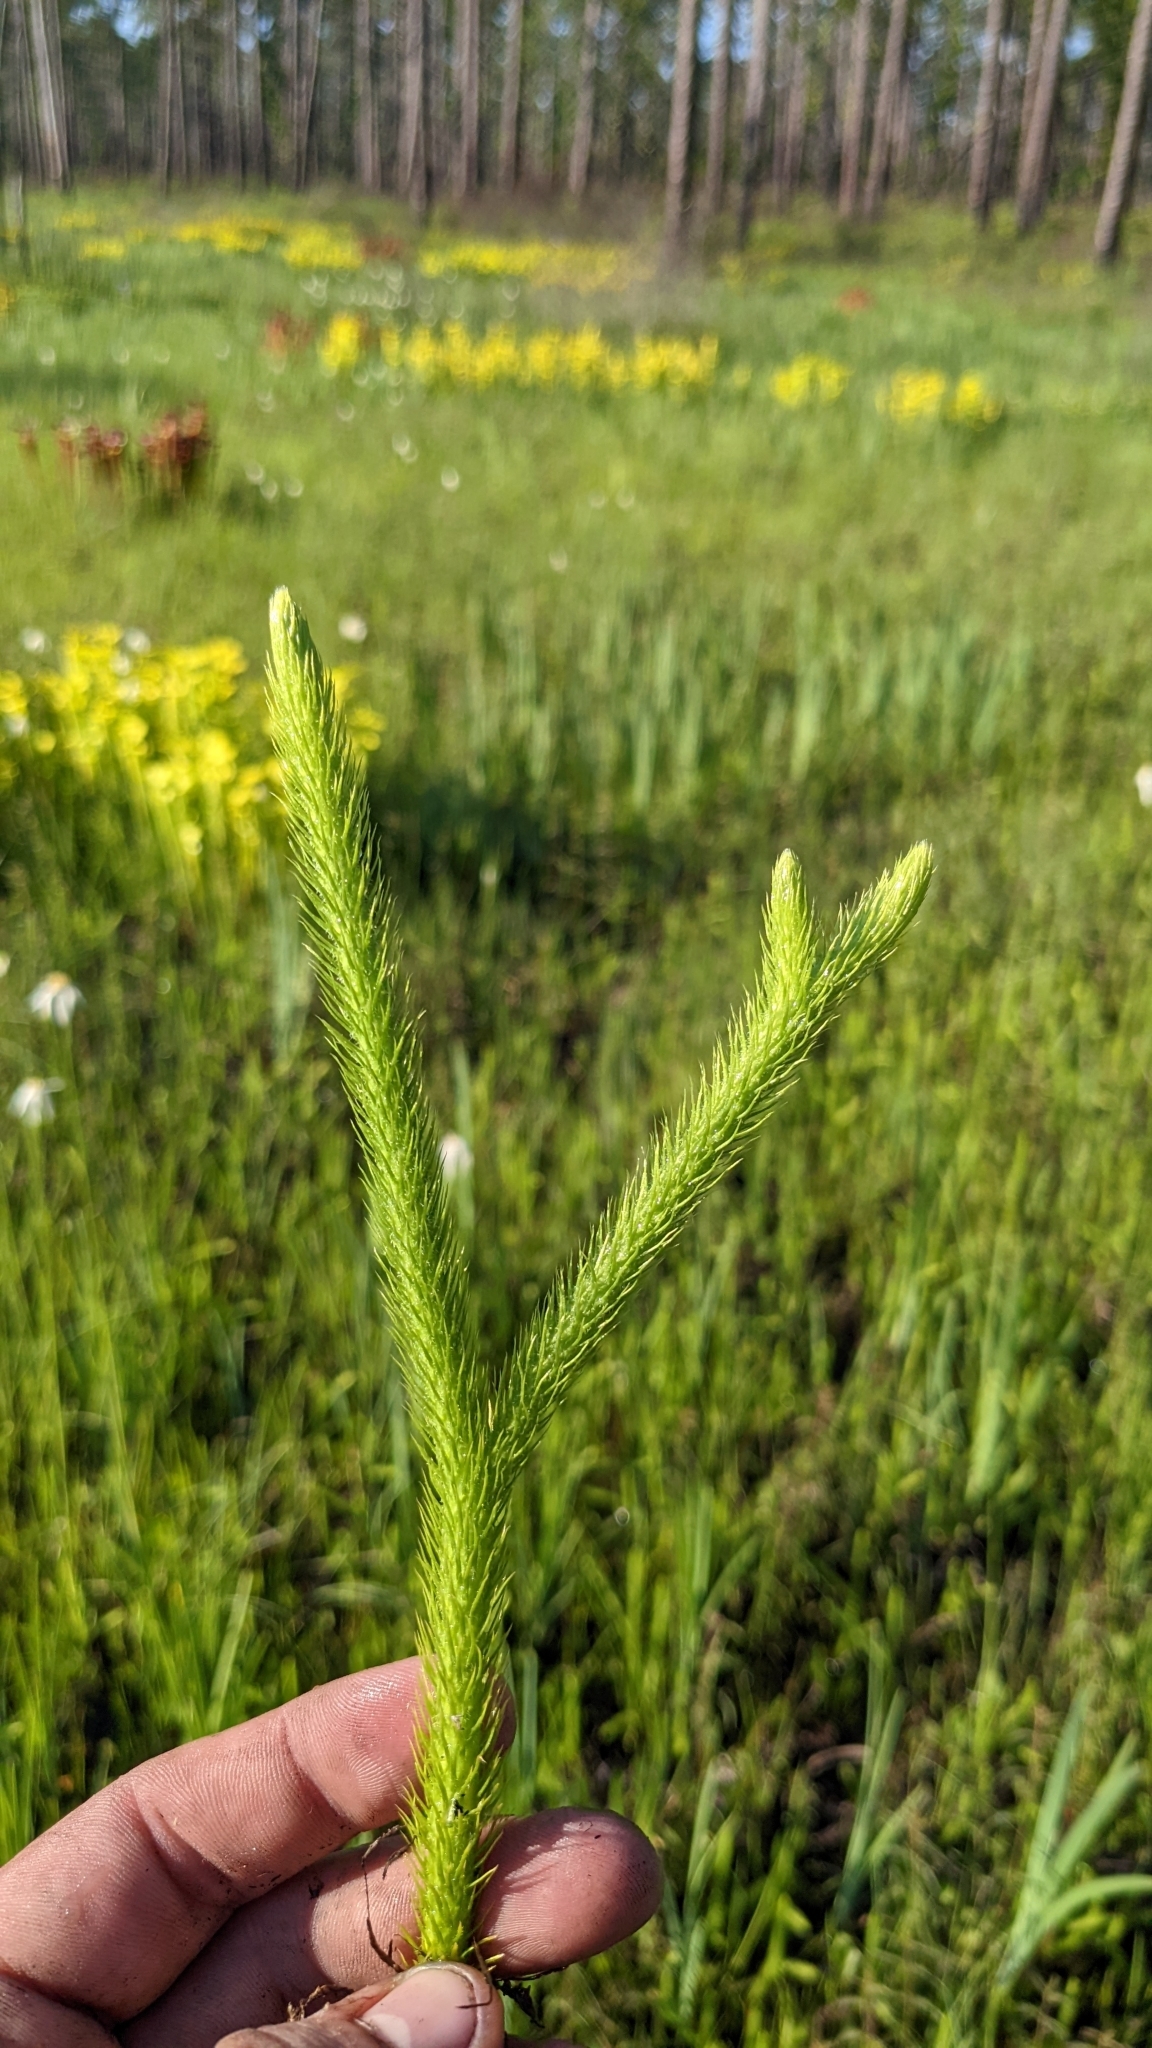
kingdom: Plantae
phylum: Tracheophyta
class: Lycopodiopsida
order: Lycopodiales
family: Lycopodiaceae
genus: Lycopodiella
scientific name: Lycopodiella alopecuroides
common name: Foxtail clubmoss
